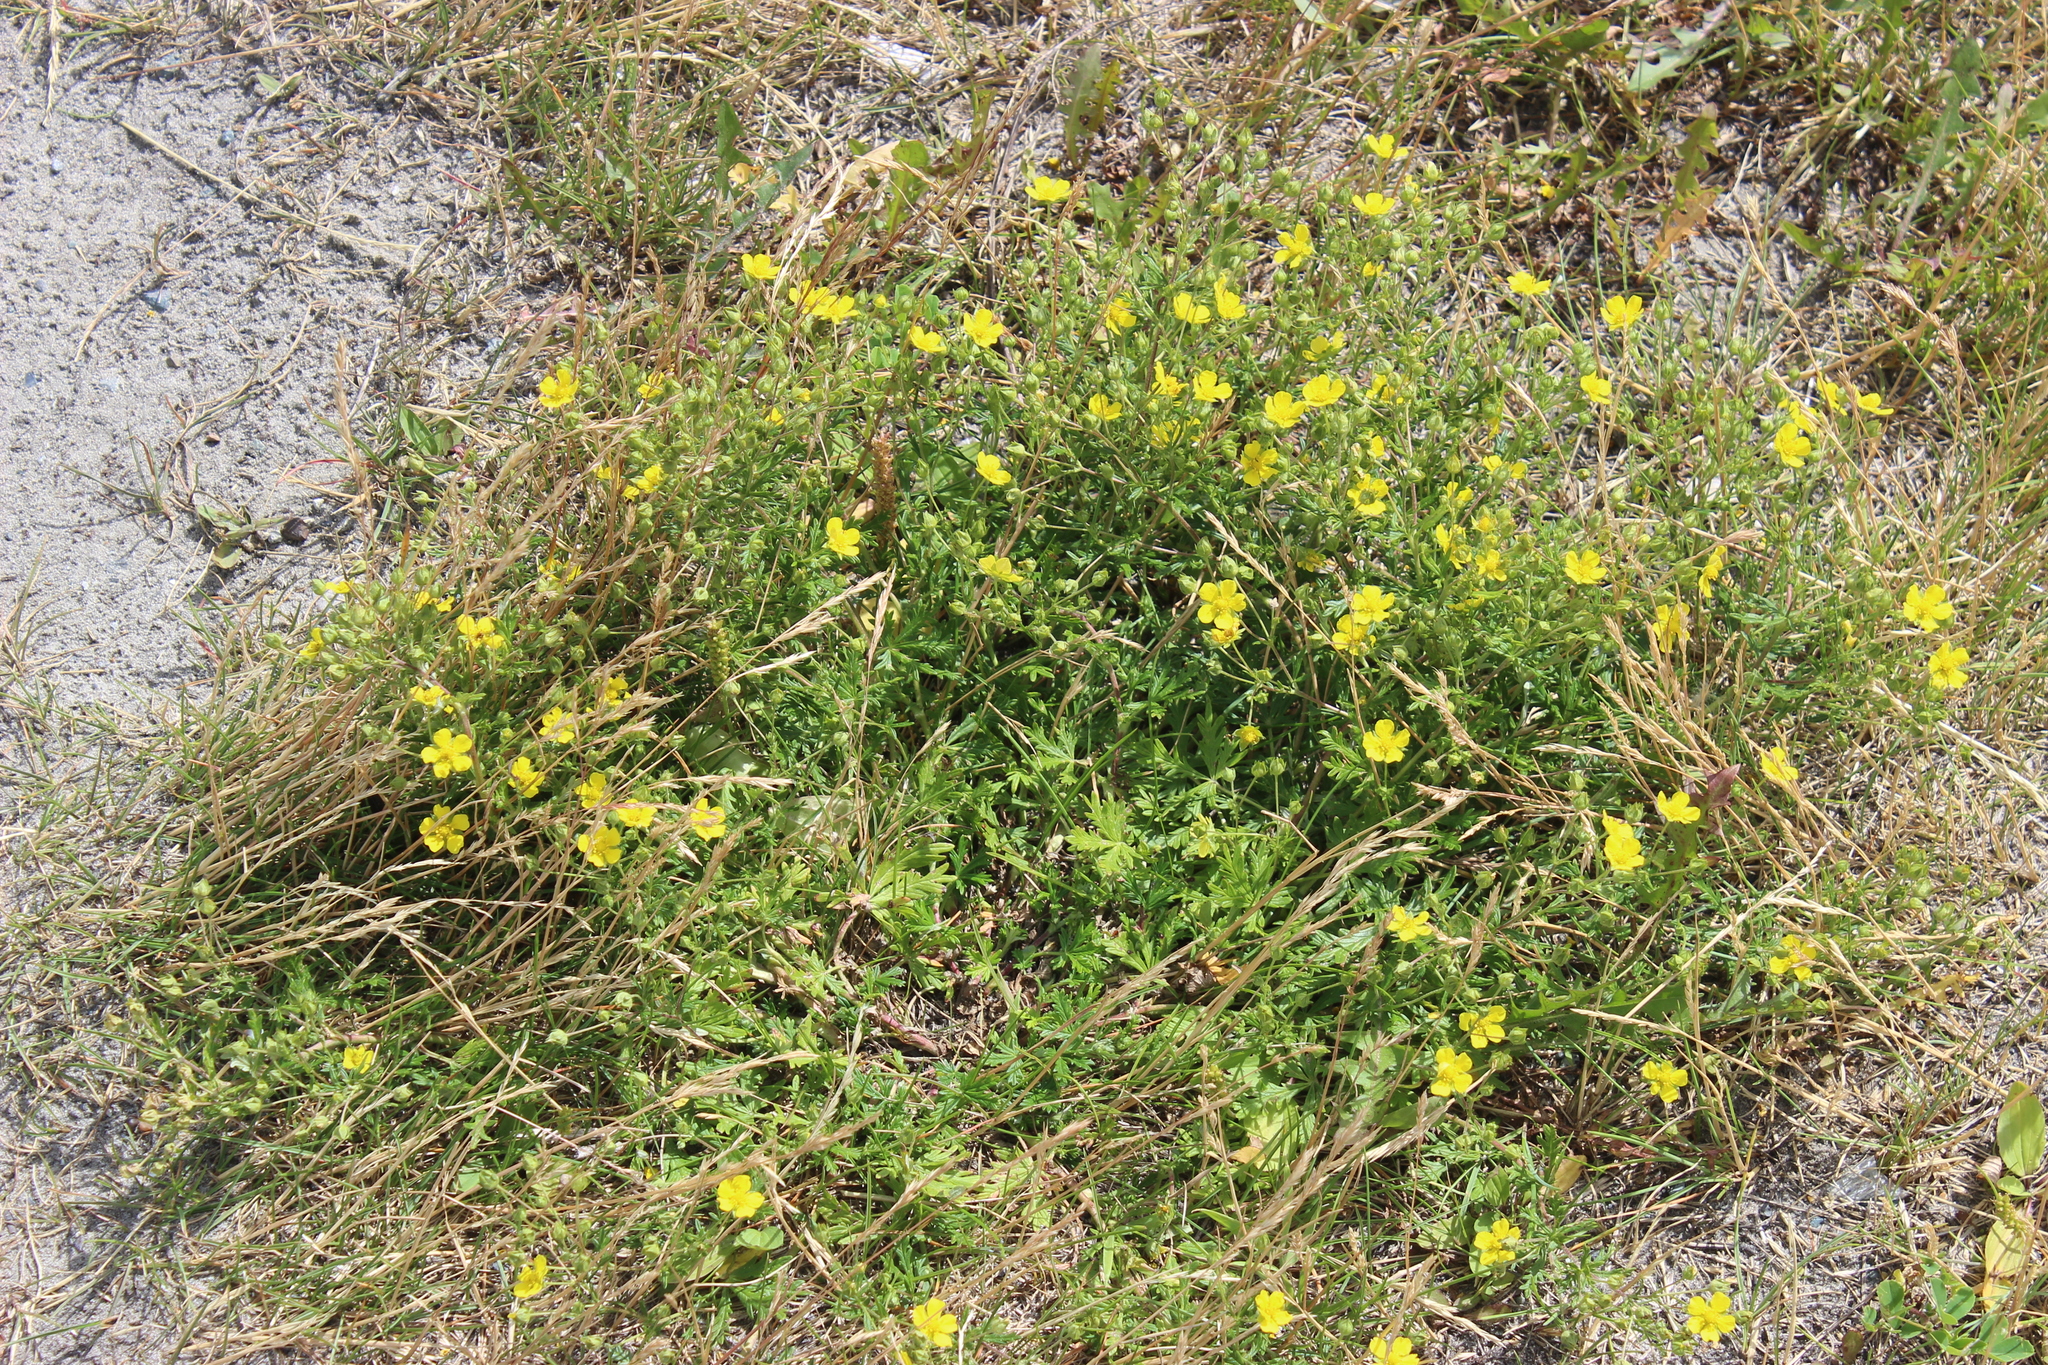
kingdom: Plantae
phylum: Tracheophyta
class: Magnoliopsida
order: Rosales
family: Rosaceae
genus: Potentilla
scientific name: Potentilla argentea
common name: Hoary cinquefoil
